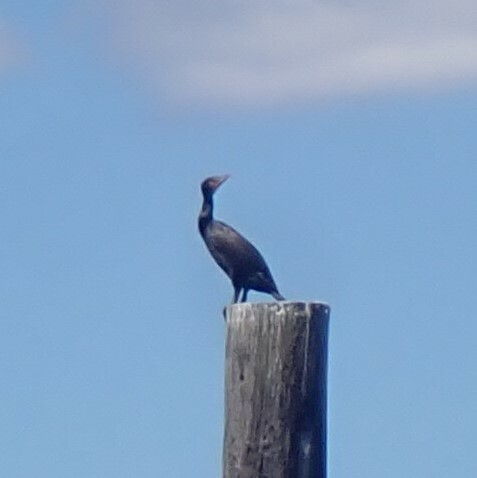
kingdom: Animalia
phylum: Chordata
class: Aves
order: Suliformes
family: Phalacrocoracidae
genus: Phalacrocorax
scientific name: Phalacrocorax auritus
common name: Double-crested cormorant
